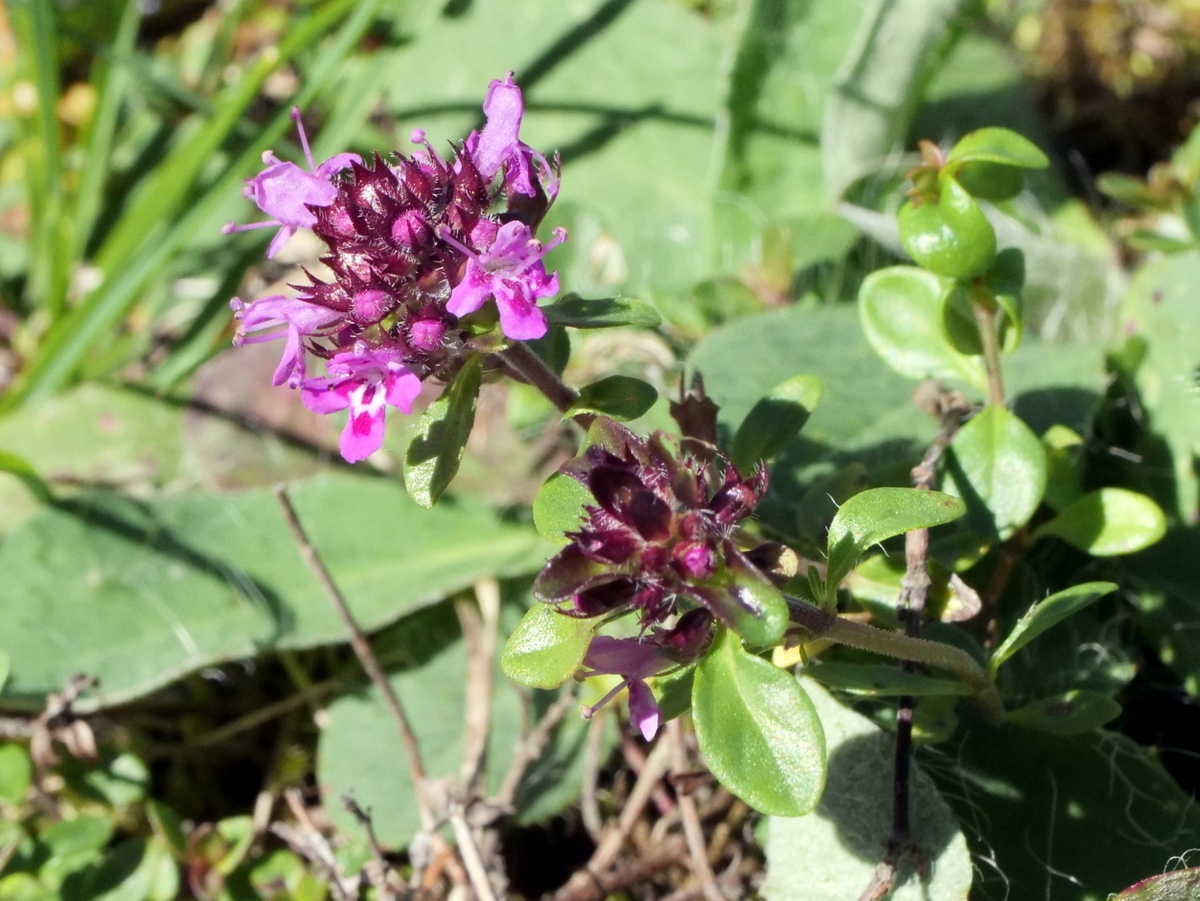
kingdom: Plantae
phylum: Tracheophyta
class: Magnoliopsida
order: Lamiales
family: Lamiaceae
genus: Thymus
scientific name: Thymus praecox
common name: Wild thyme
